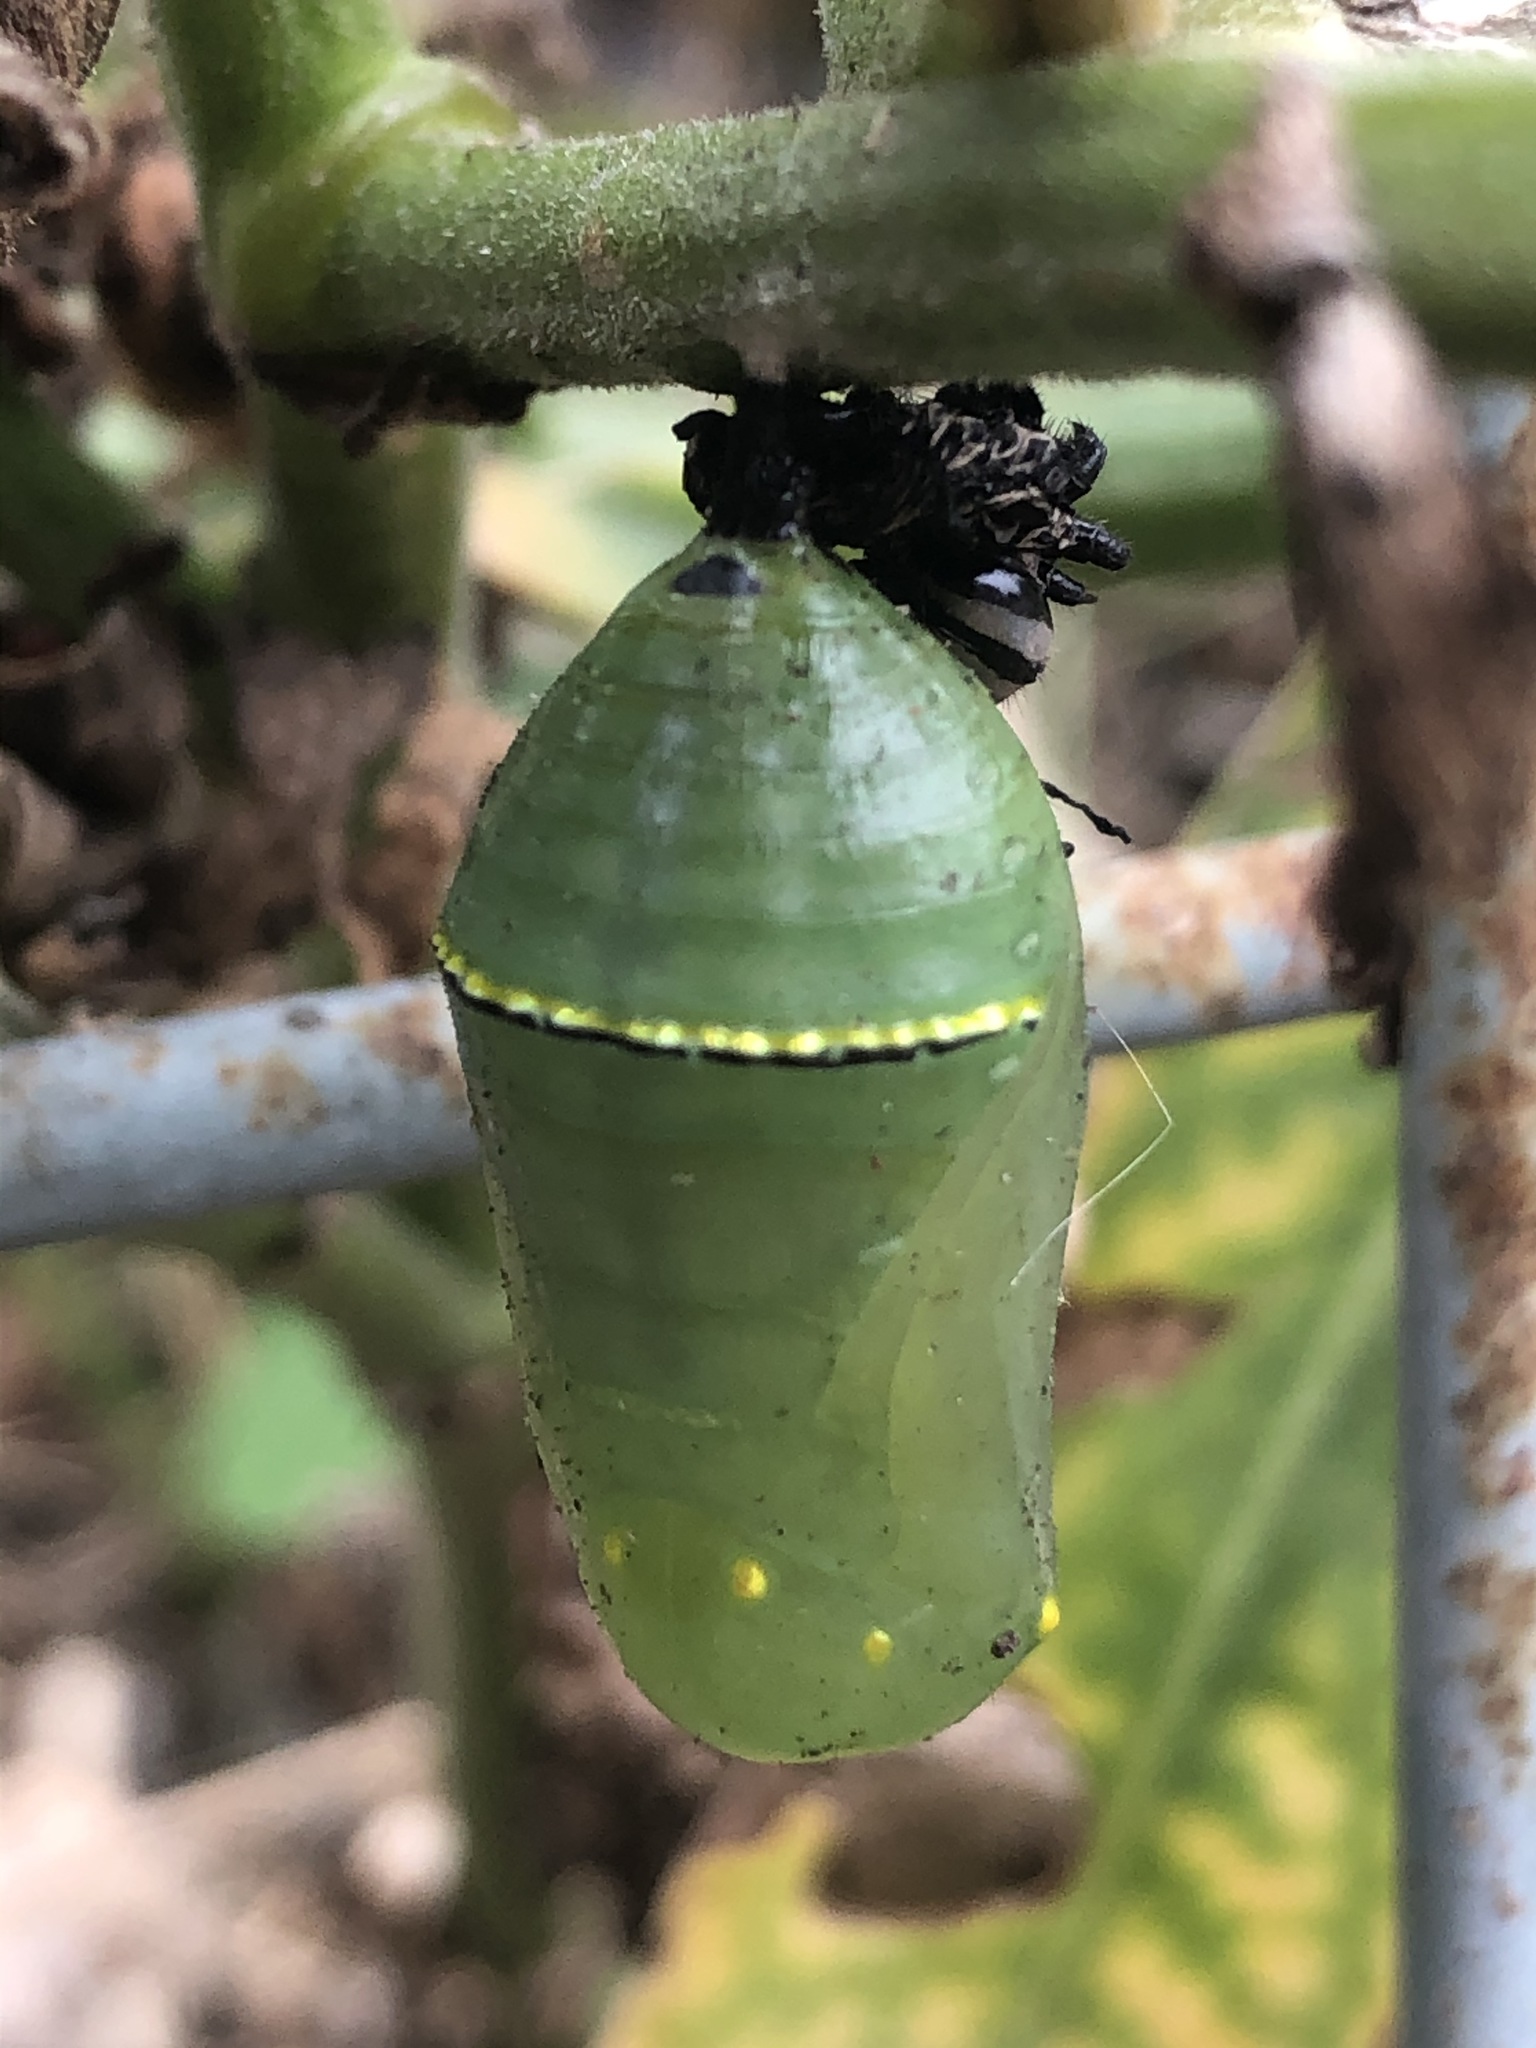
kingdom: Animalia
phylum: Arthropoda
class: Insecta
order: Lepidoptera
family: Nymphalidae
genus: Danaus
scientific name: Danaus plexippus
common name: Monarch
